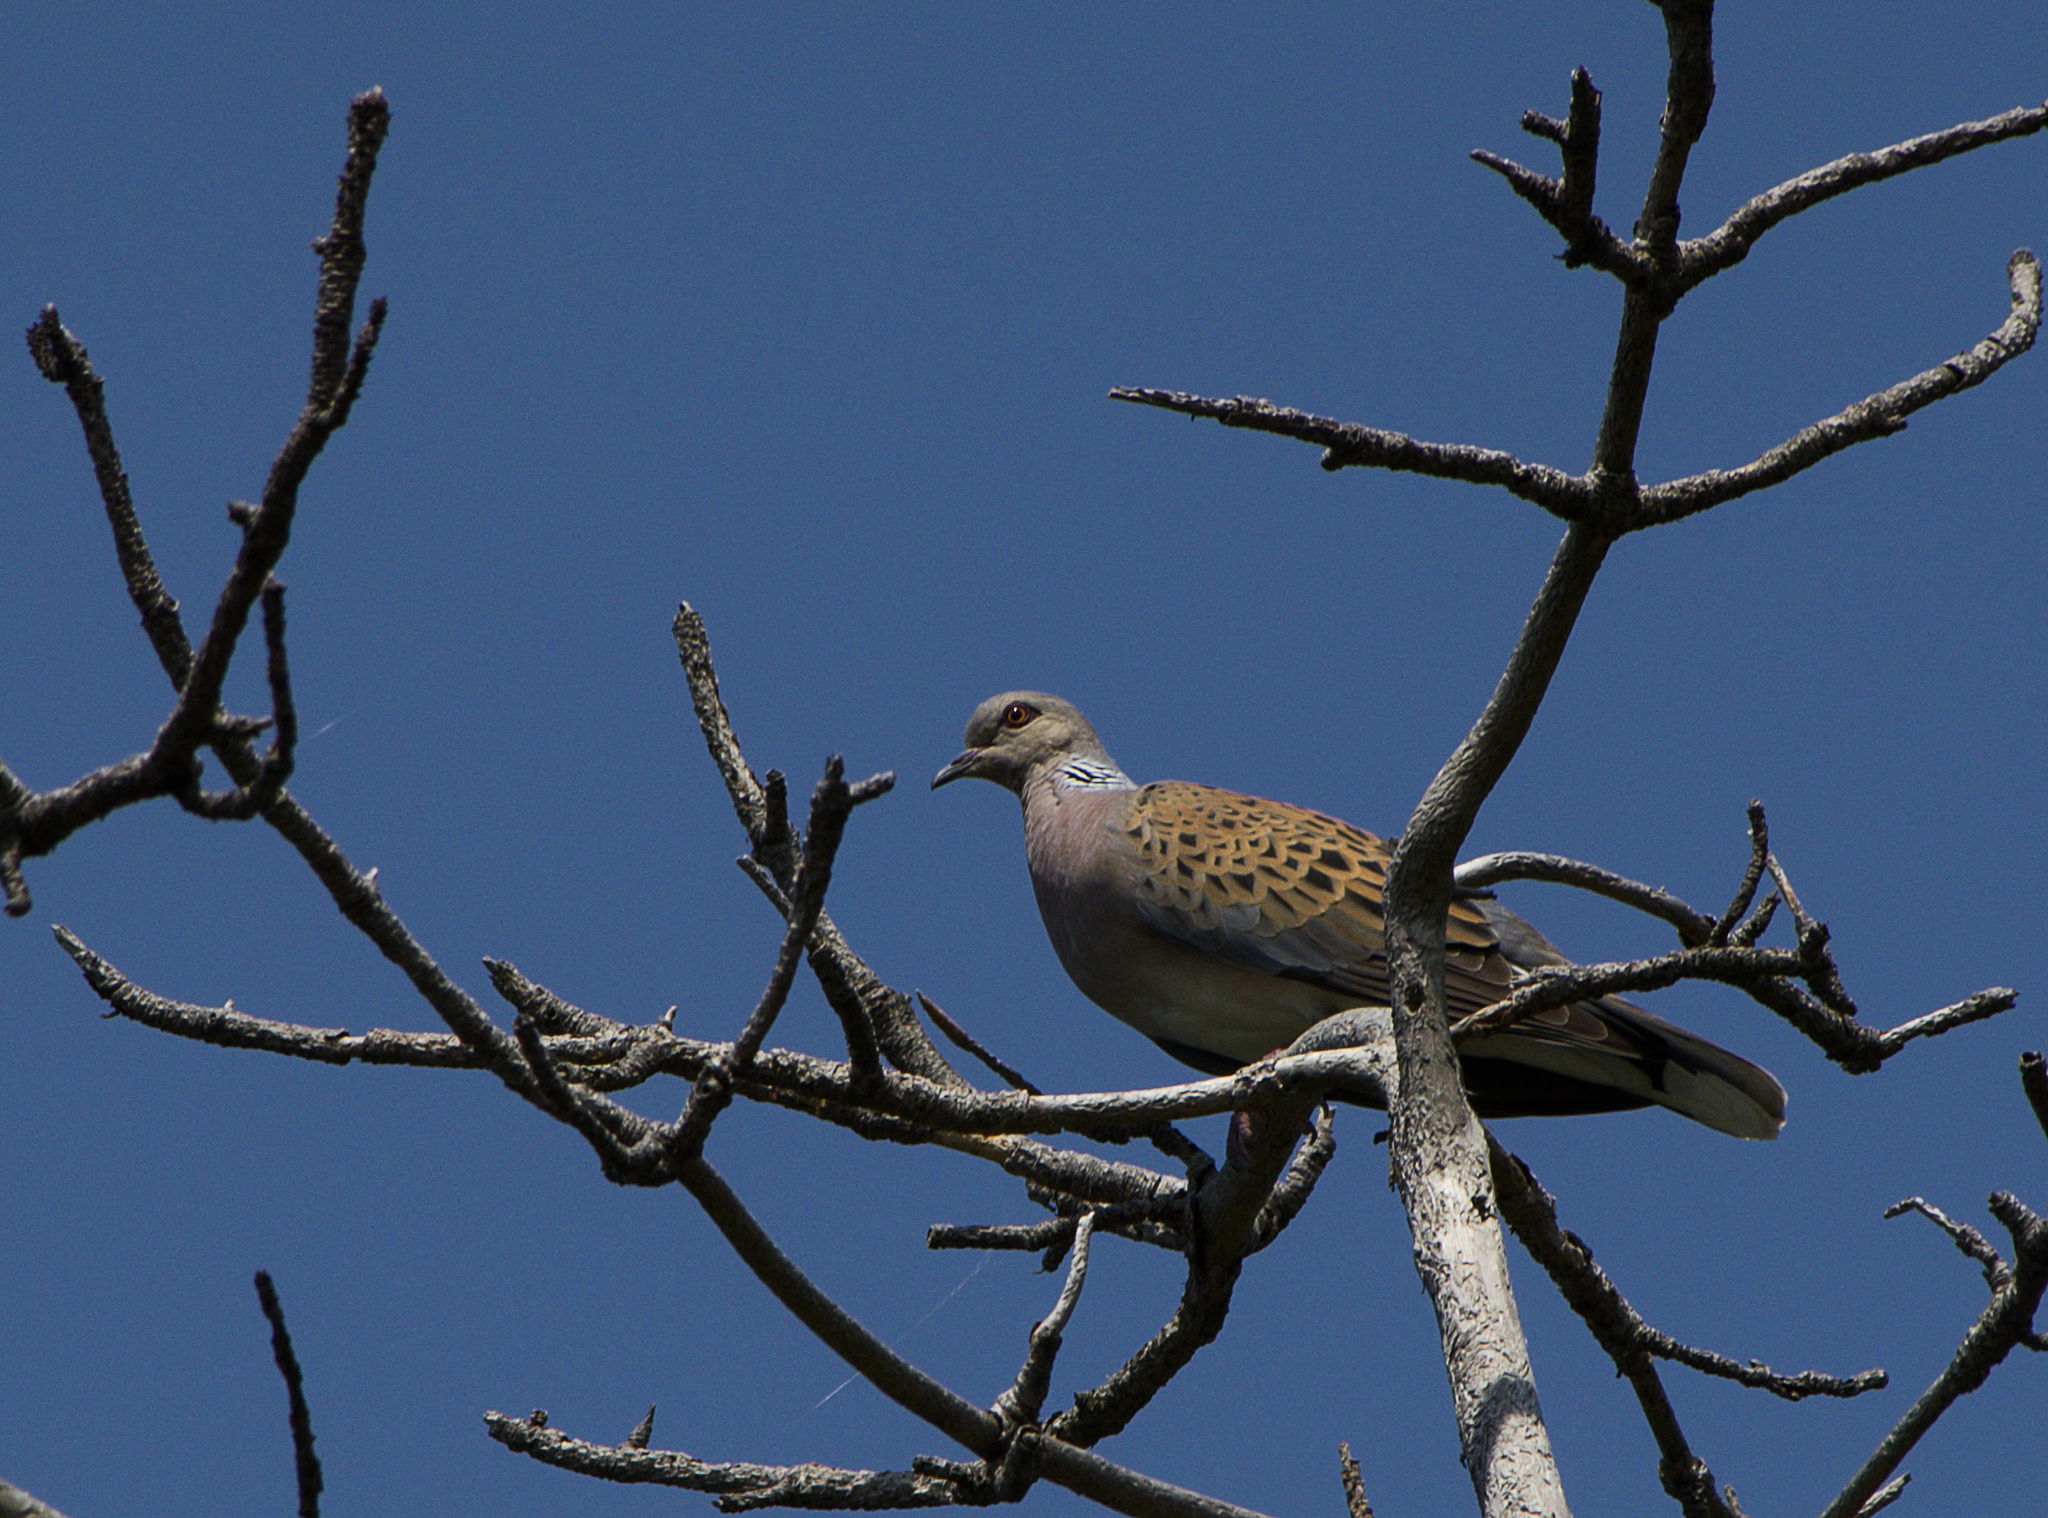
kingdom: Animalia
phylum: Chordata
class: Aves
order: Columbiformes
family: Columbidae
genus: Streptopelia
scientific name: Streptopelia turtur
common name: European turtle dove
